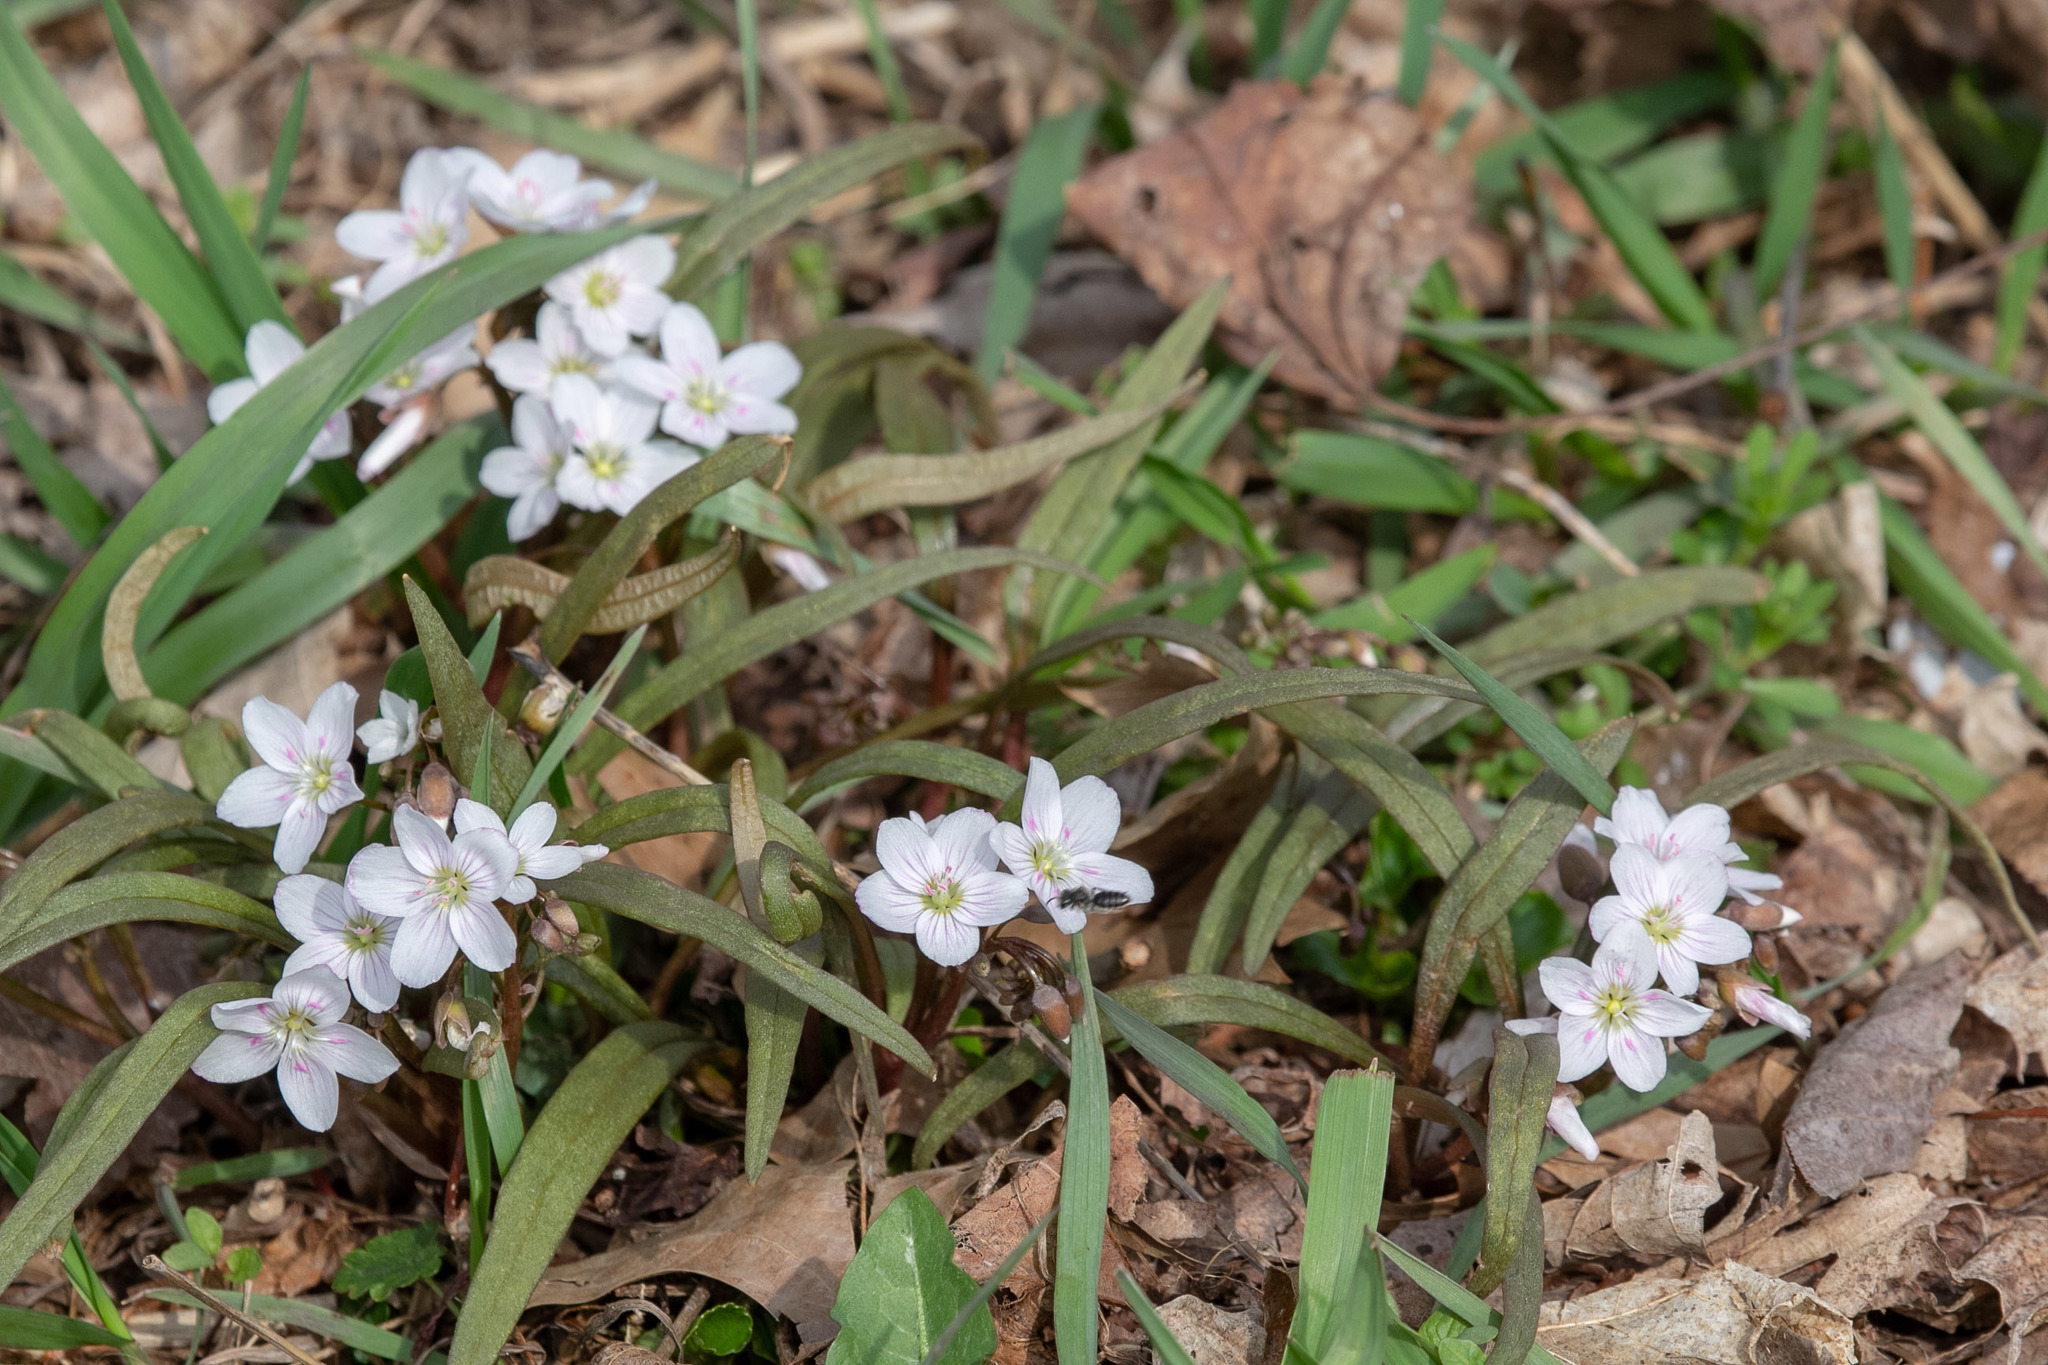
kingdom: Plantae
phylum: Tracheophyta
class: Magnoliopsida
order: Caryophyllales
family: Montiaceae
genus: Claytonia
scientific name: Claytonia virginica
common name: Virginia springbeauty
